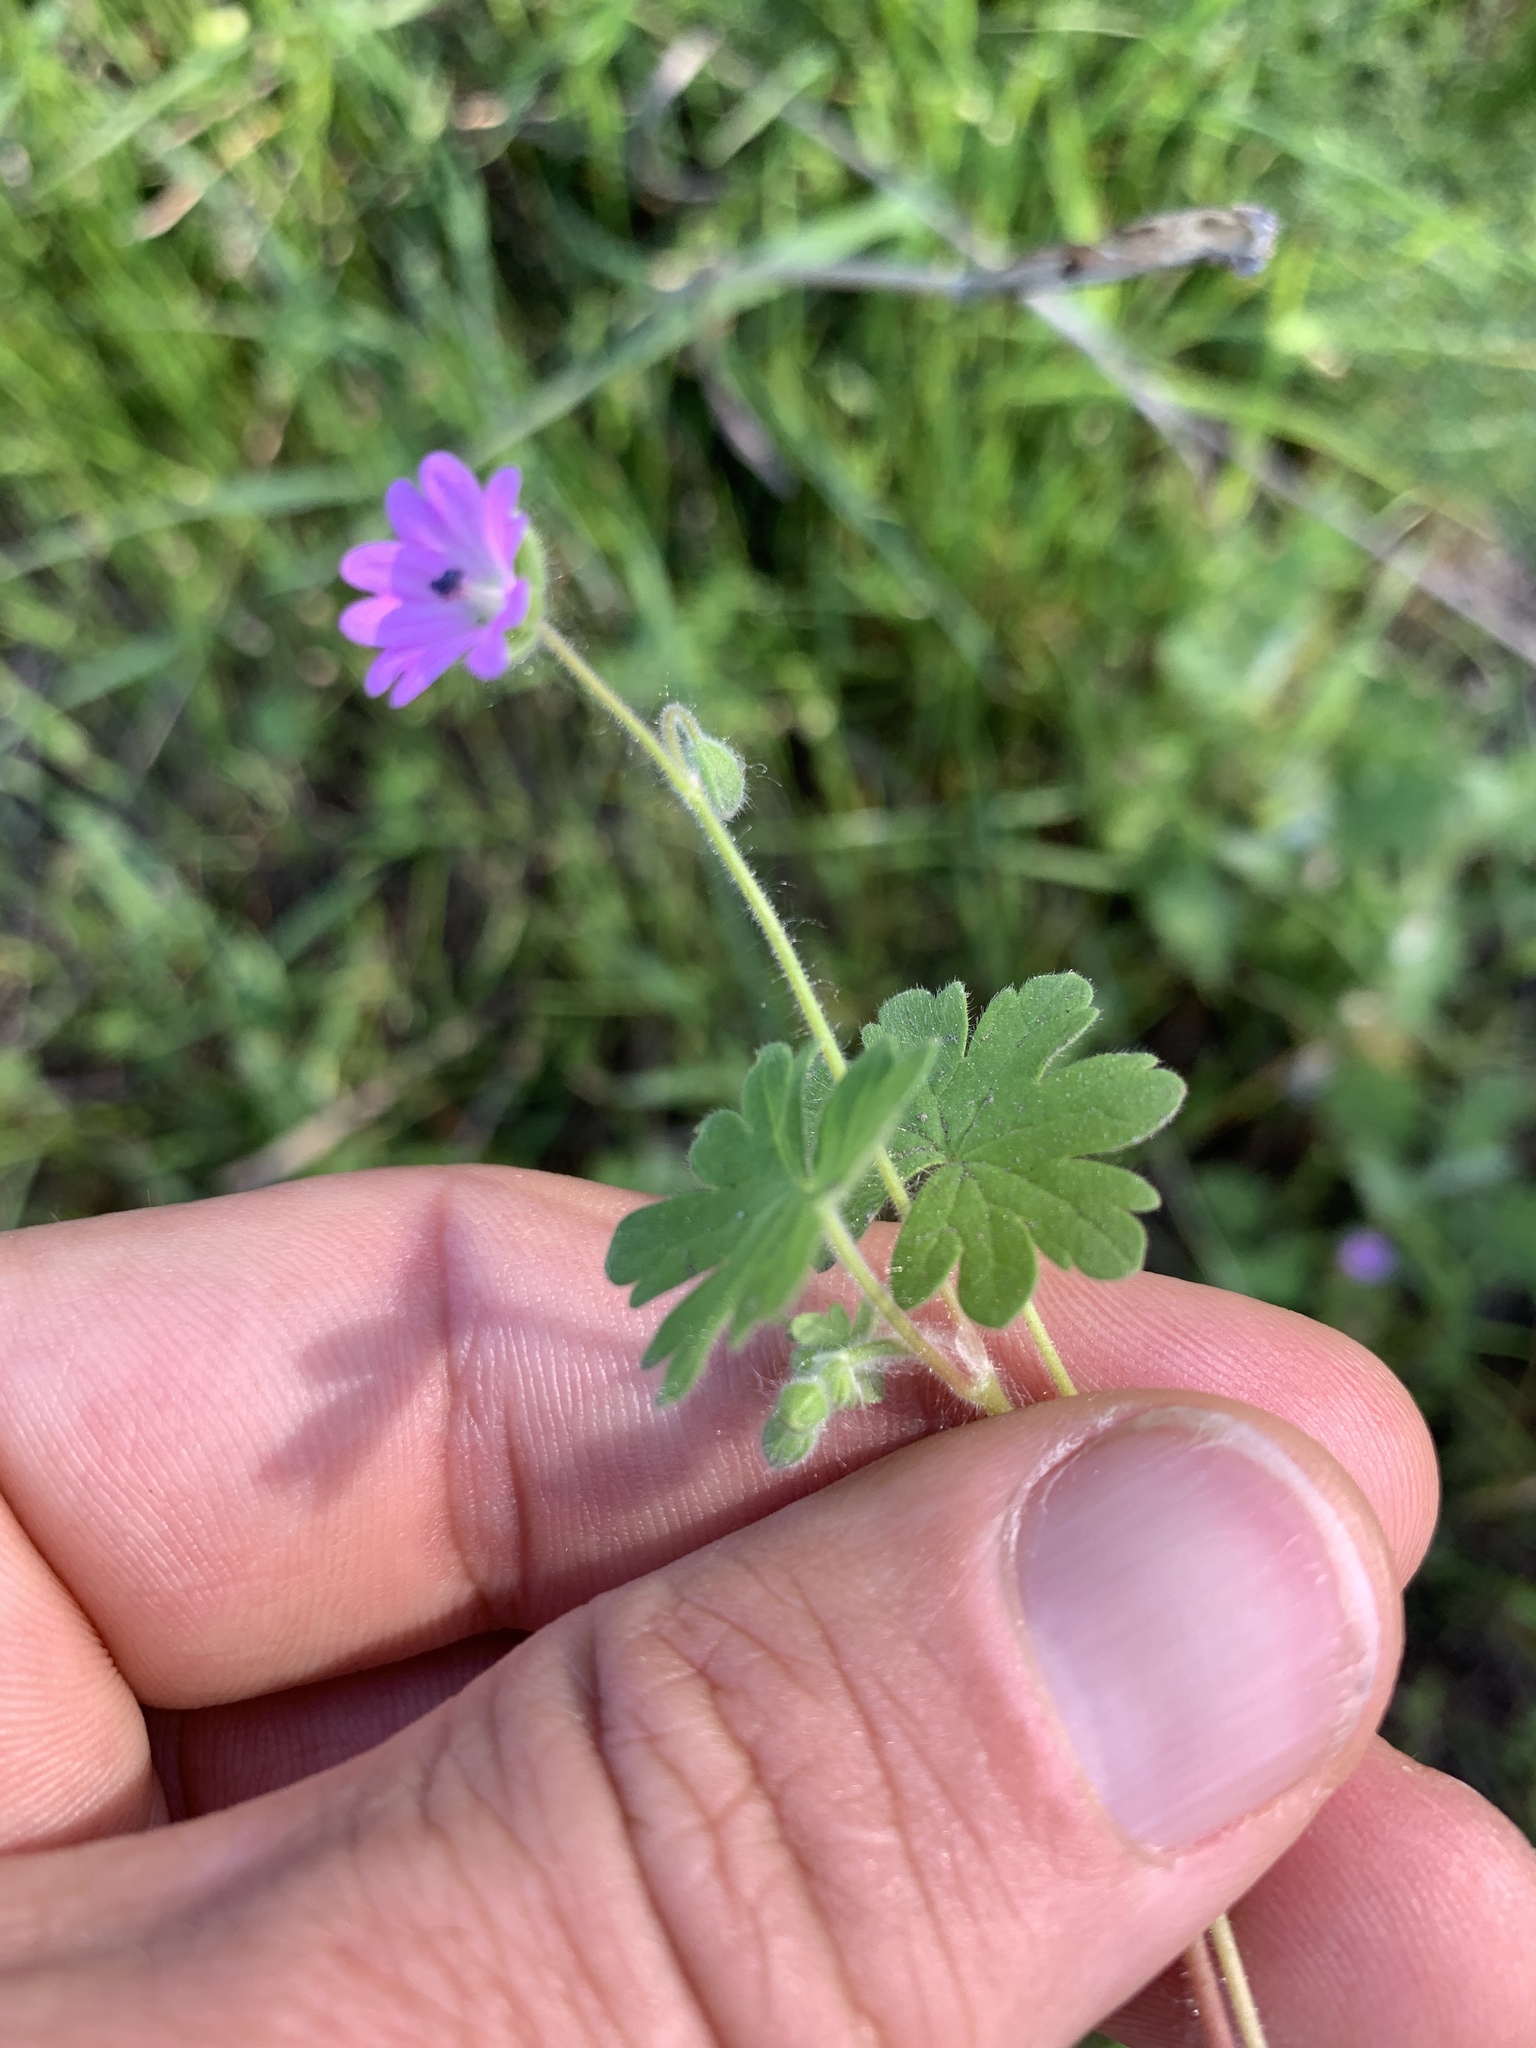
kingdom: Plantae
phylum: Tracheophyta
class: Magnoliopsida
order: Geraniales
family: Geraniaceae
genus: Geranium
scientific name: Geranium molle
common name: Dove's-foot crane's-bill
